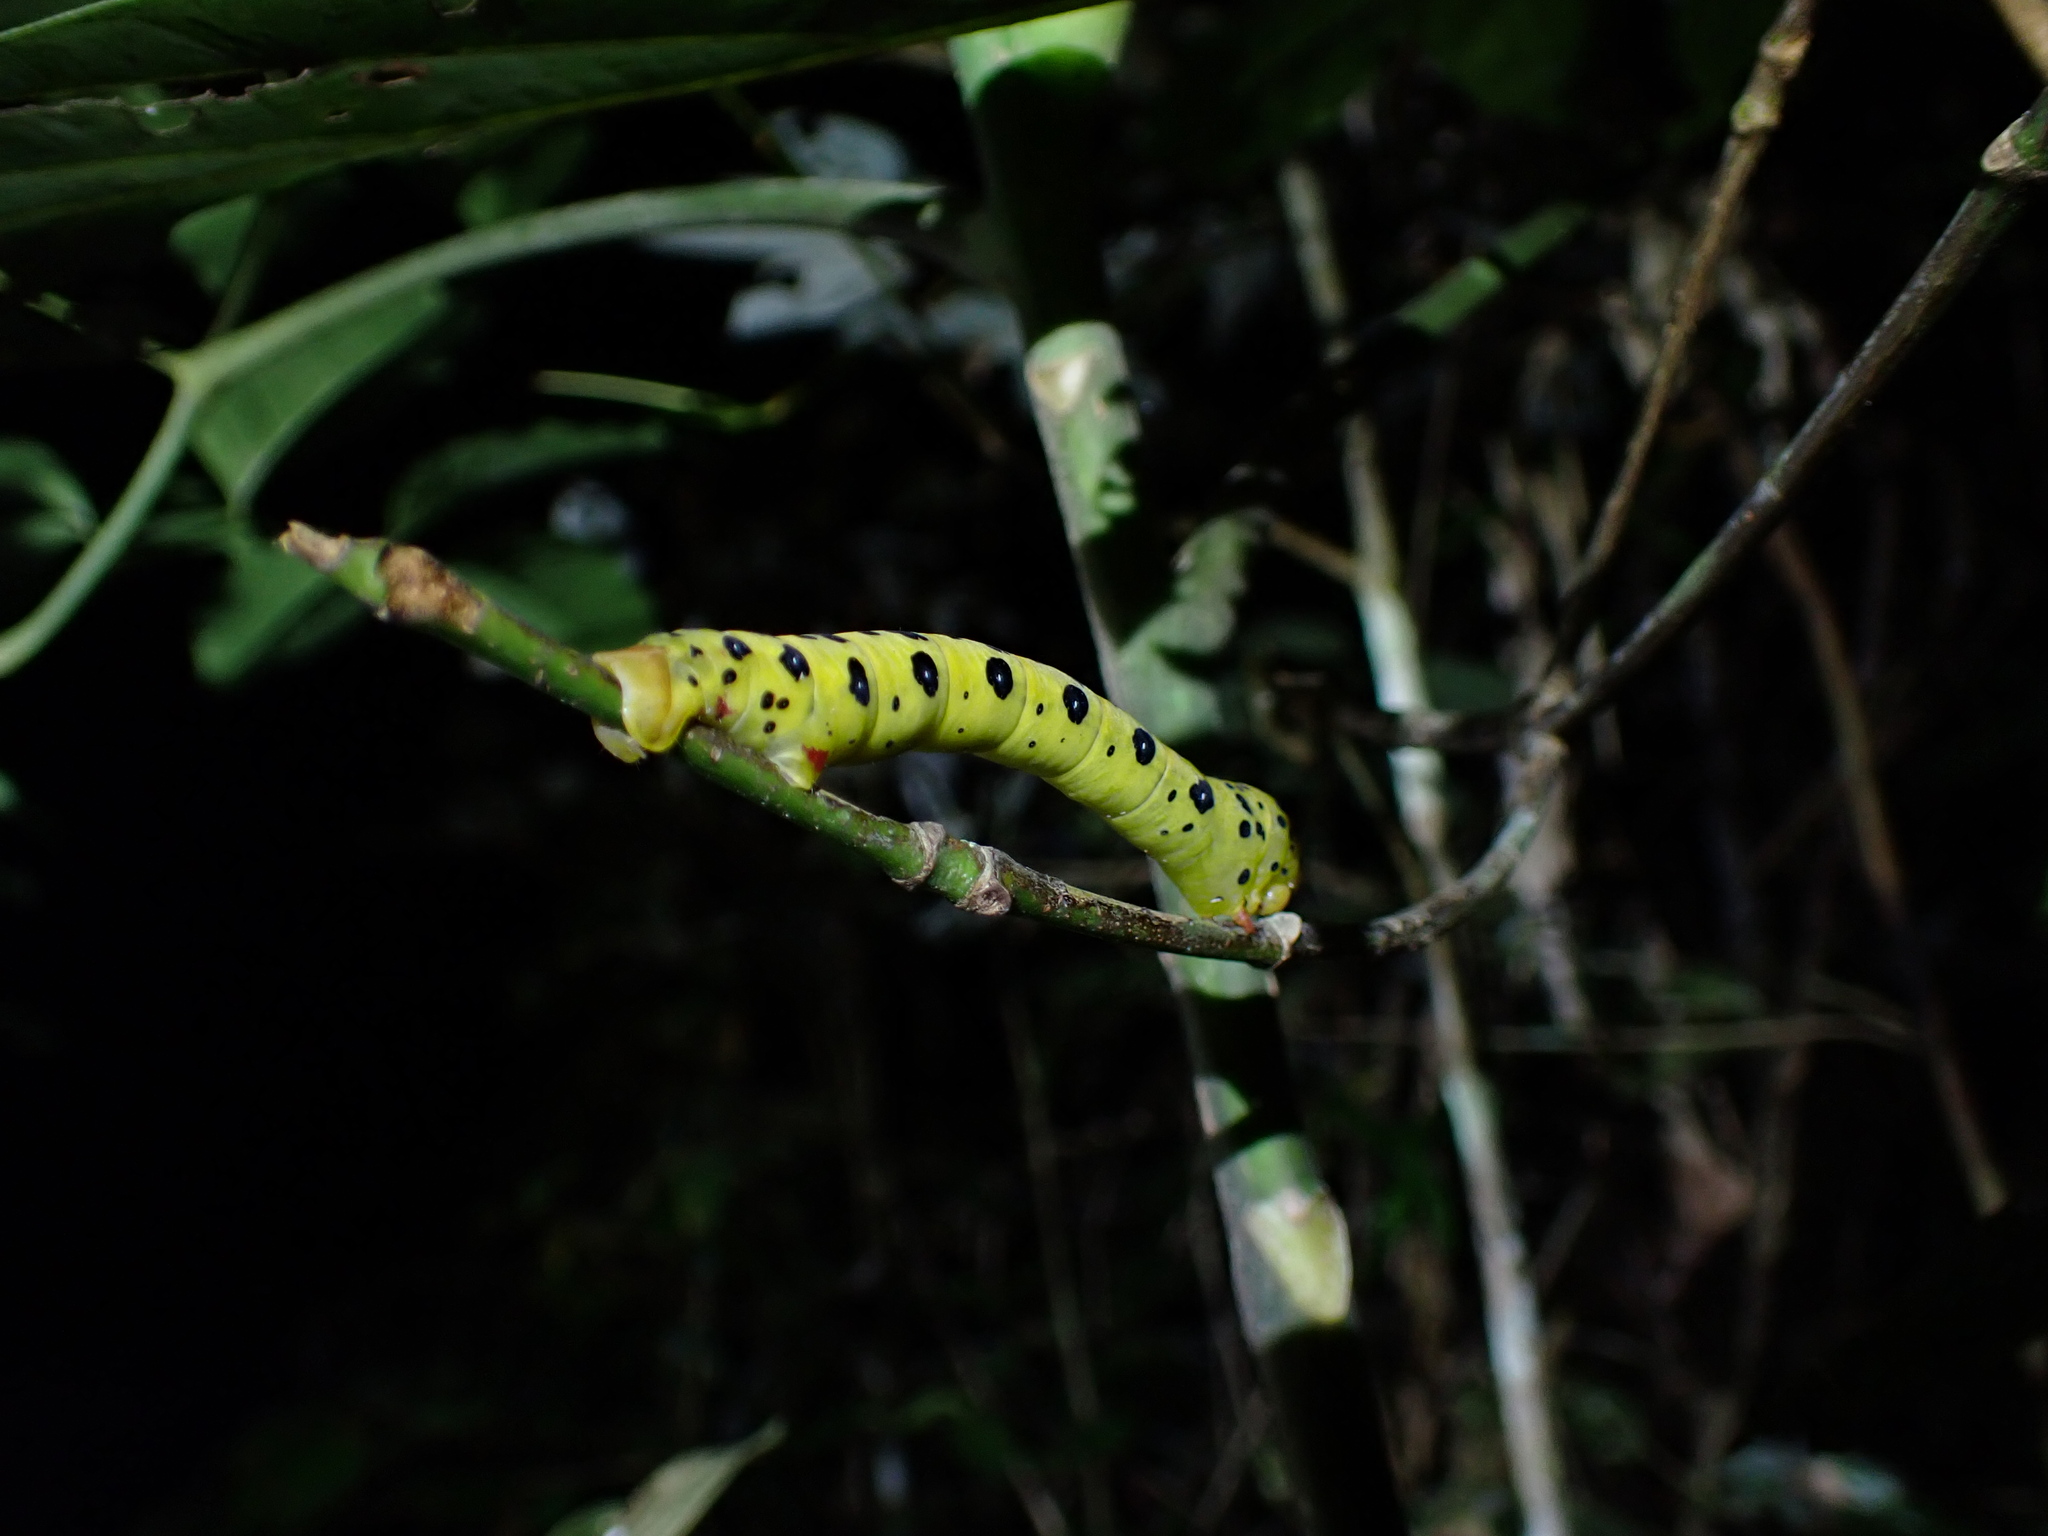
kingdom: Animalia
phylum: Arthropoda
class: Insecta
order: Lepidoptera
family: Geometridae
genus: Dysphania
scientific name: Dysphania numana
